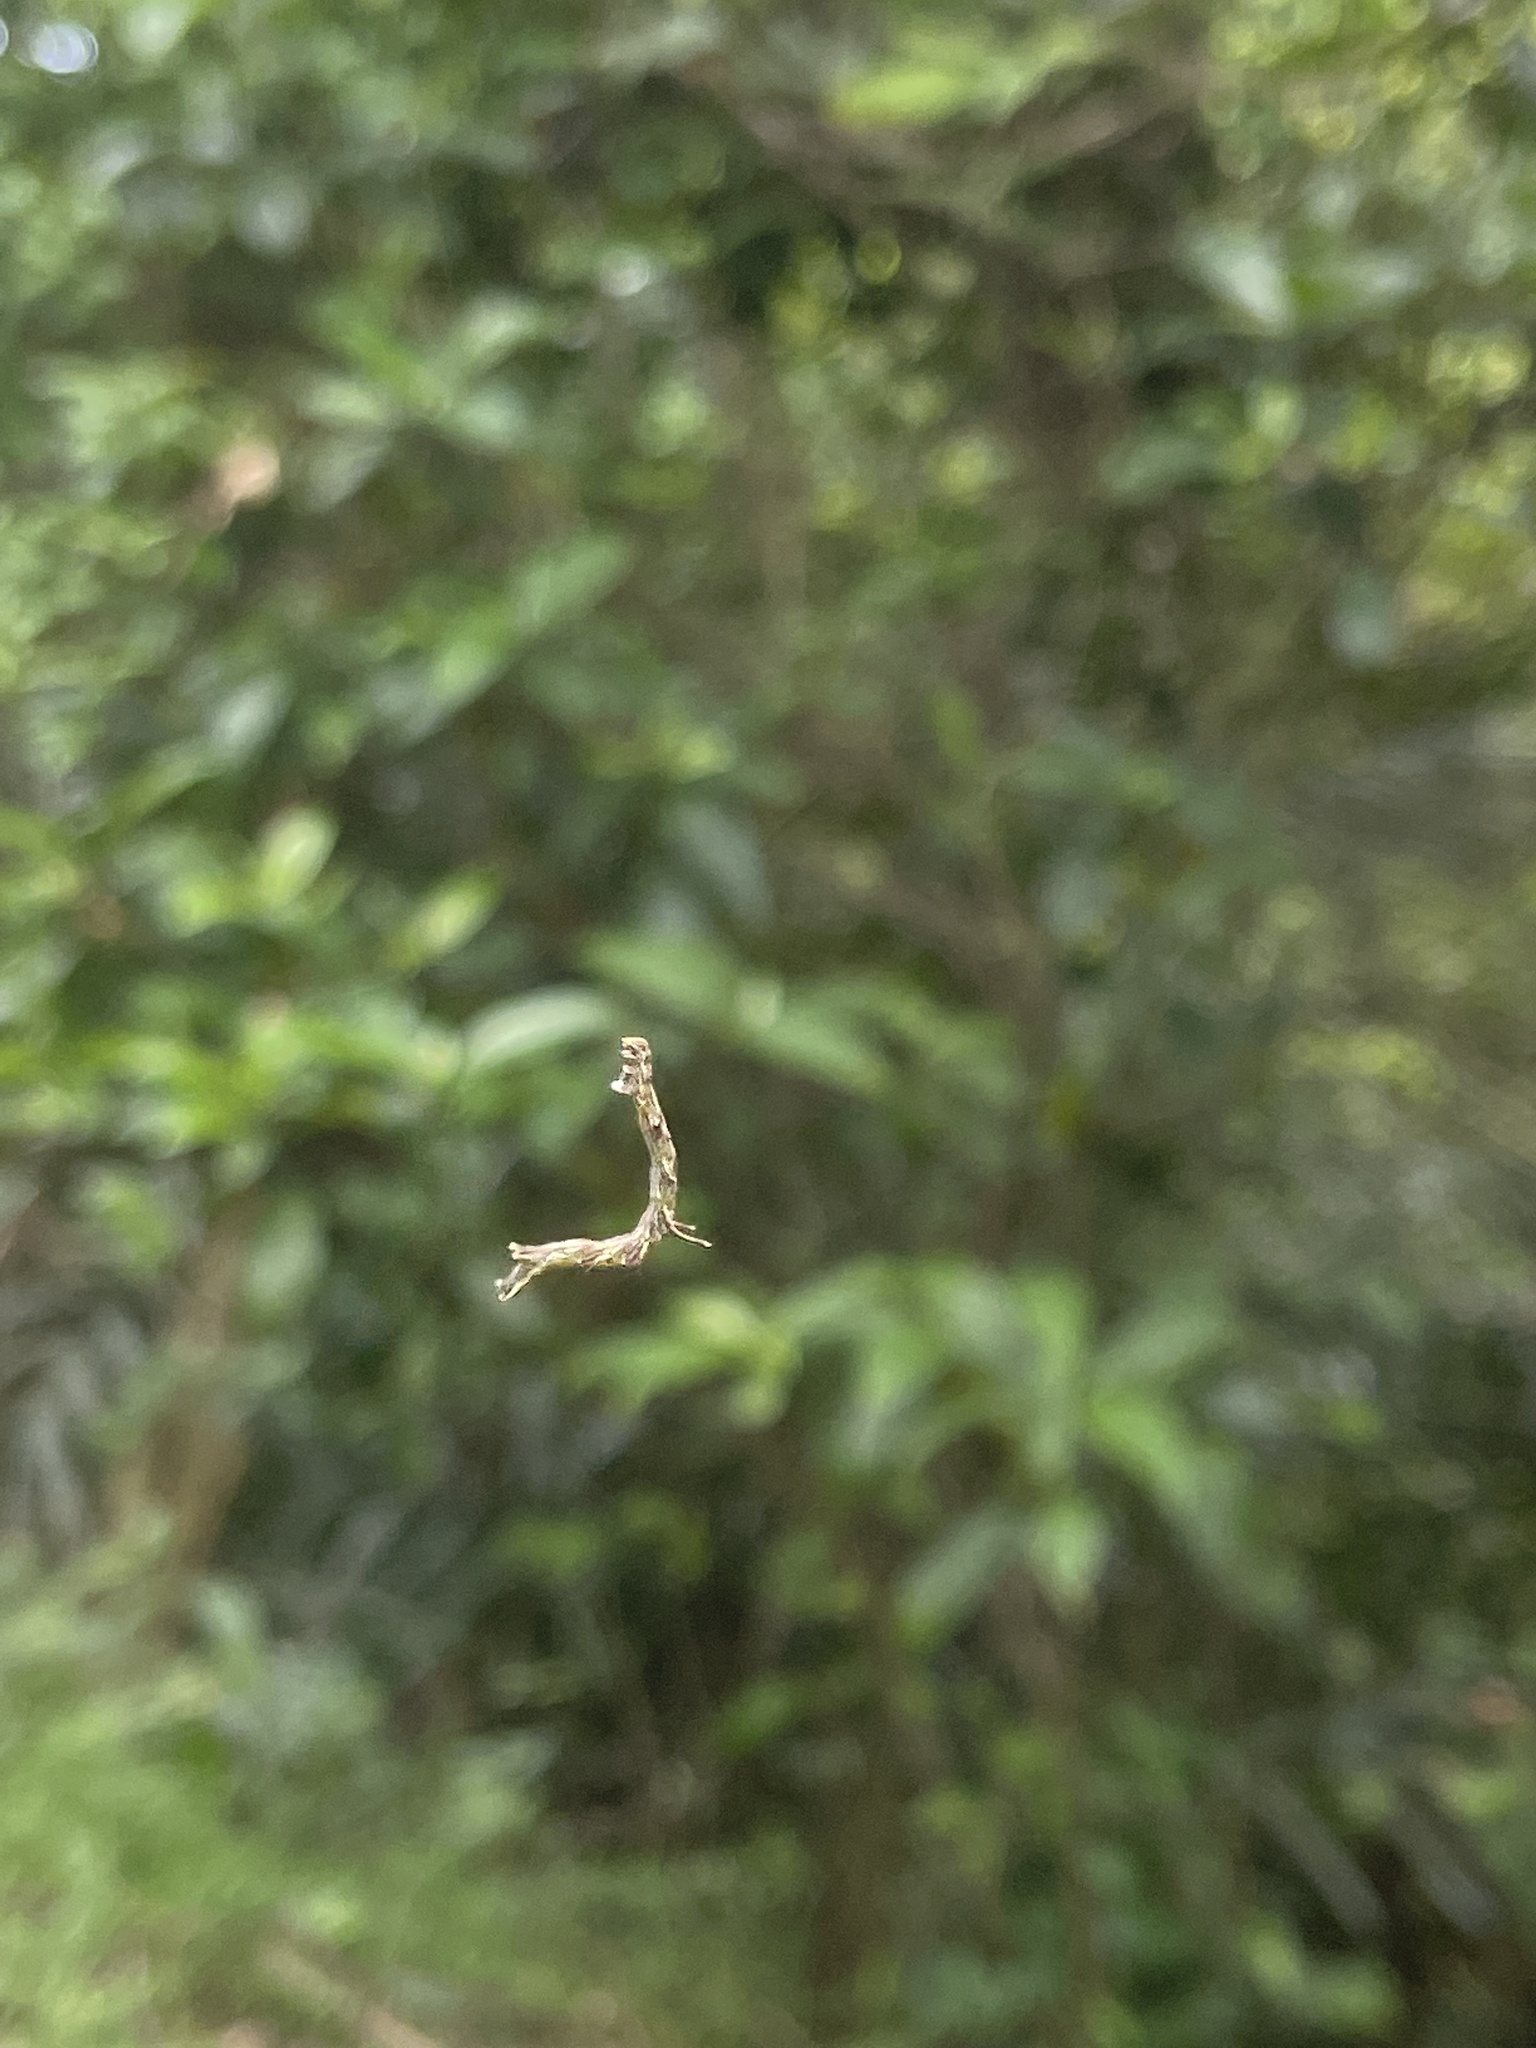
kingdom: Animalia
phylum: Arthropoda
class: Insecta
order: Lepidoptera
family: Geometridae
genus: Traminda
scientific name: Traminda aventiaria
